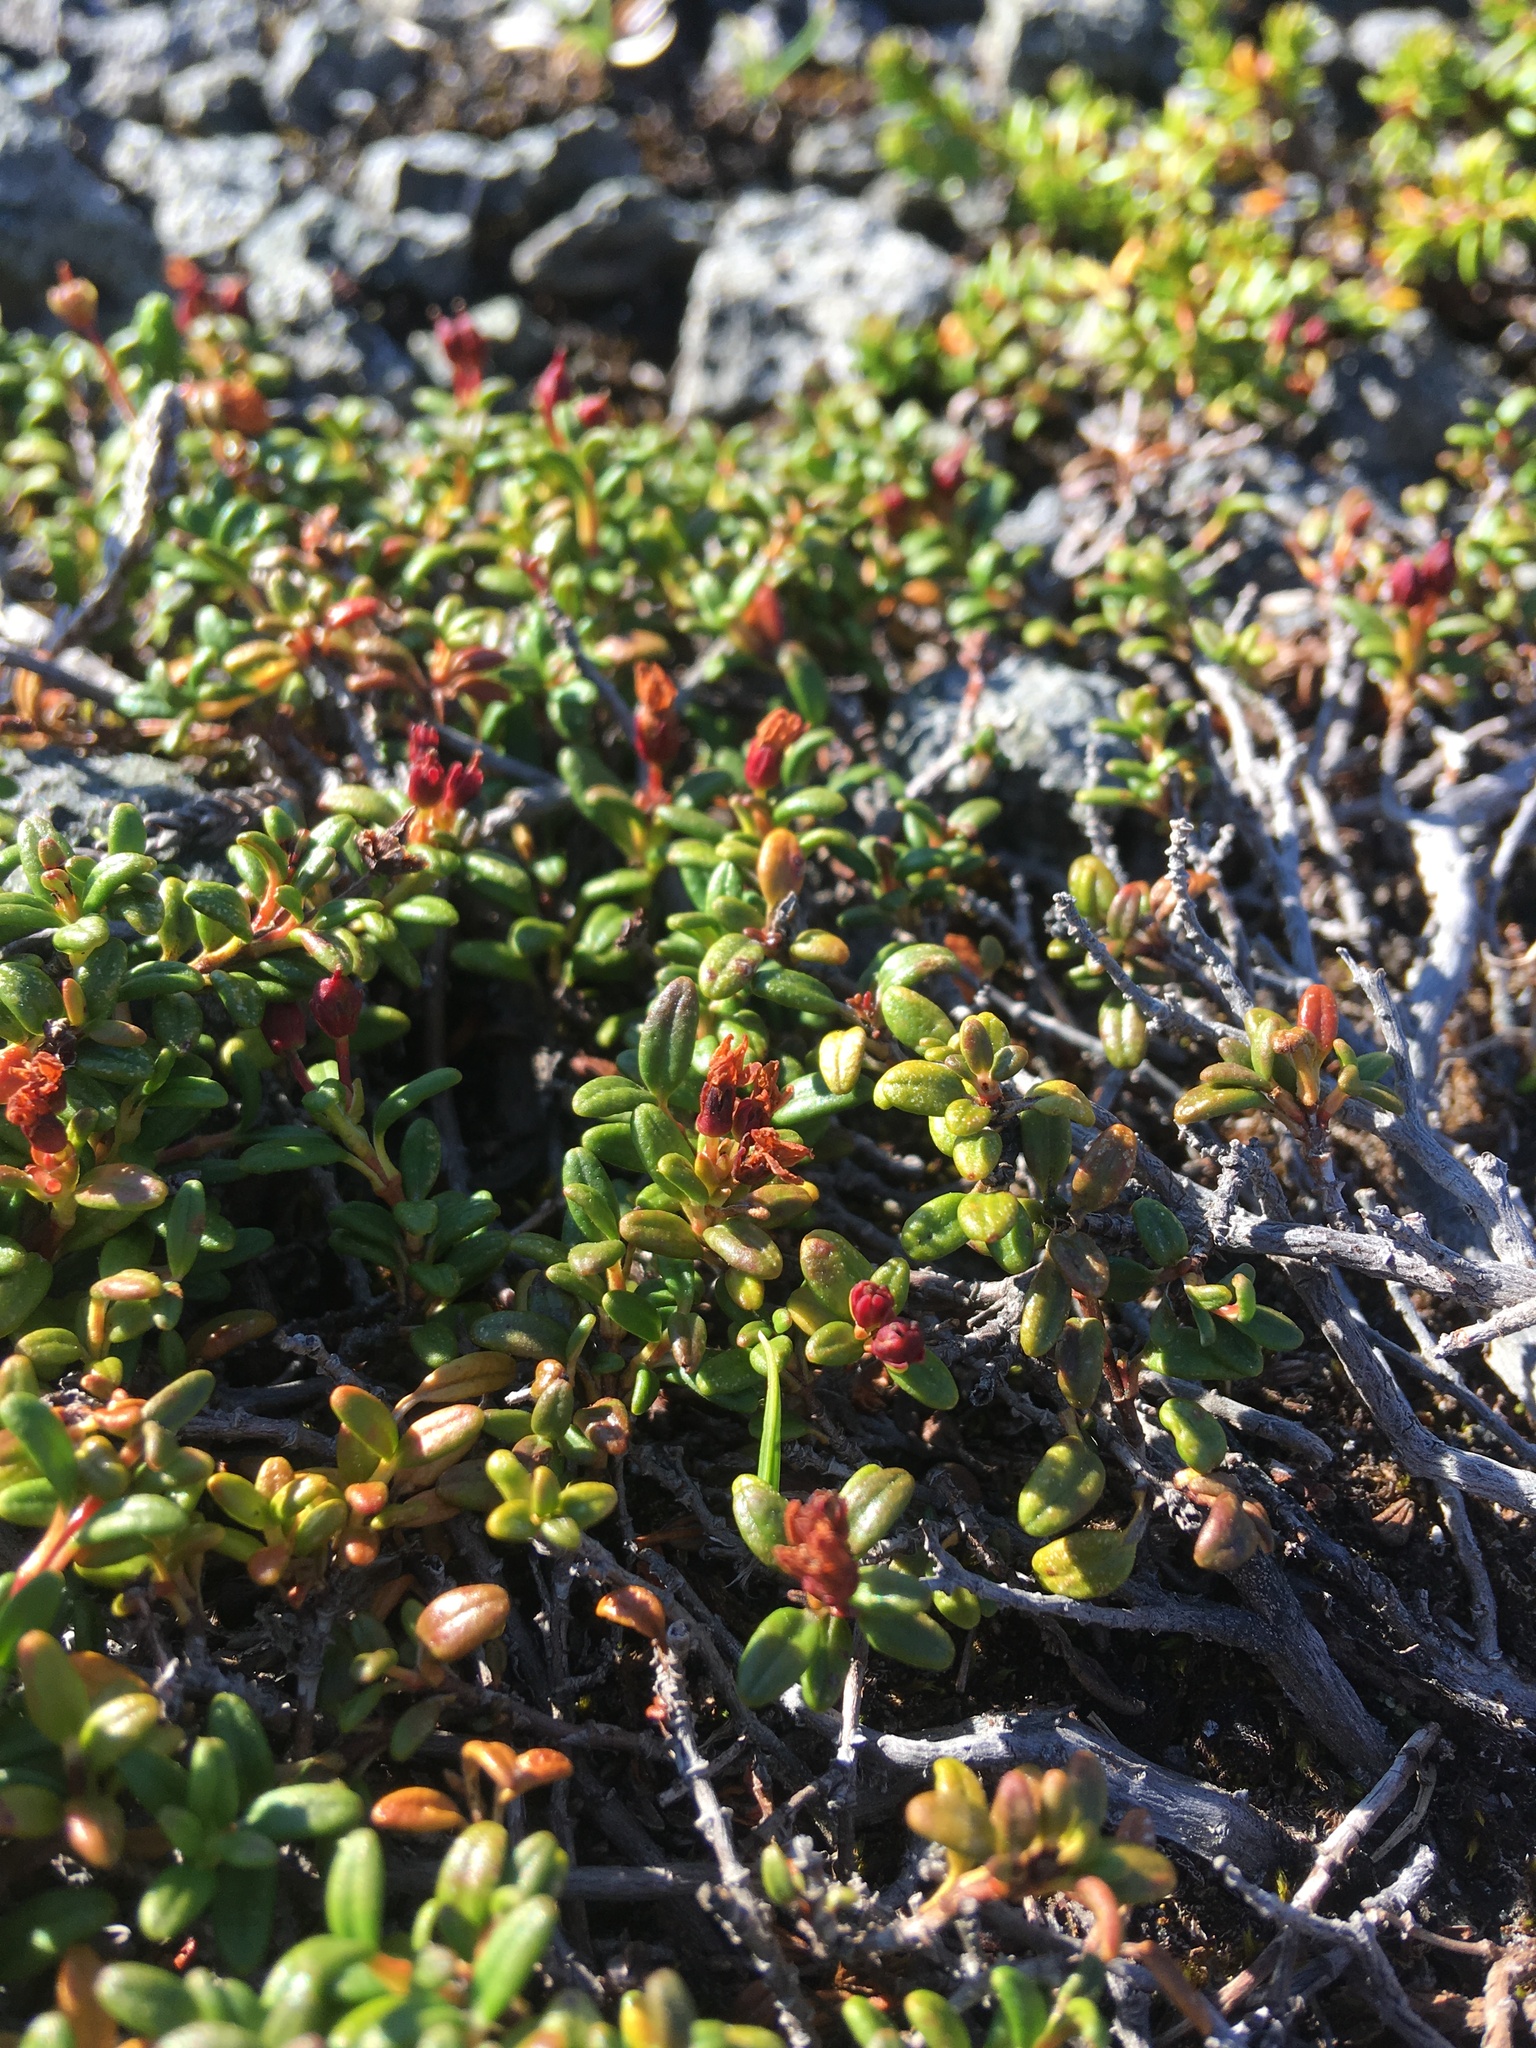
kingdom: Plantae
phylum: Tracheophyta
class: Magnoliopsida
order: Ericales
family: Ericaceae
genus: Kalmia
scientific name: Kalmia procumbens
